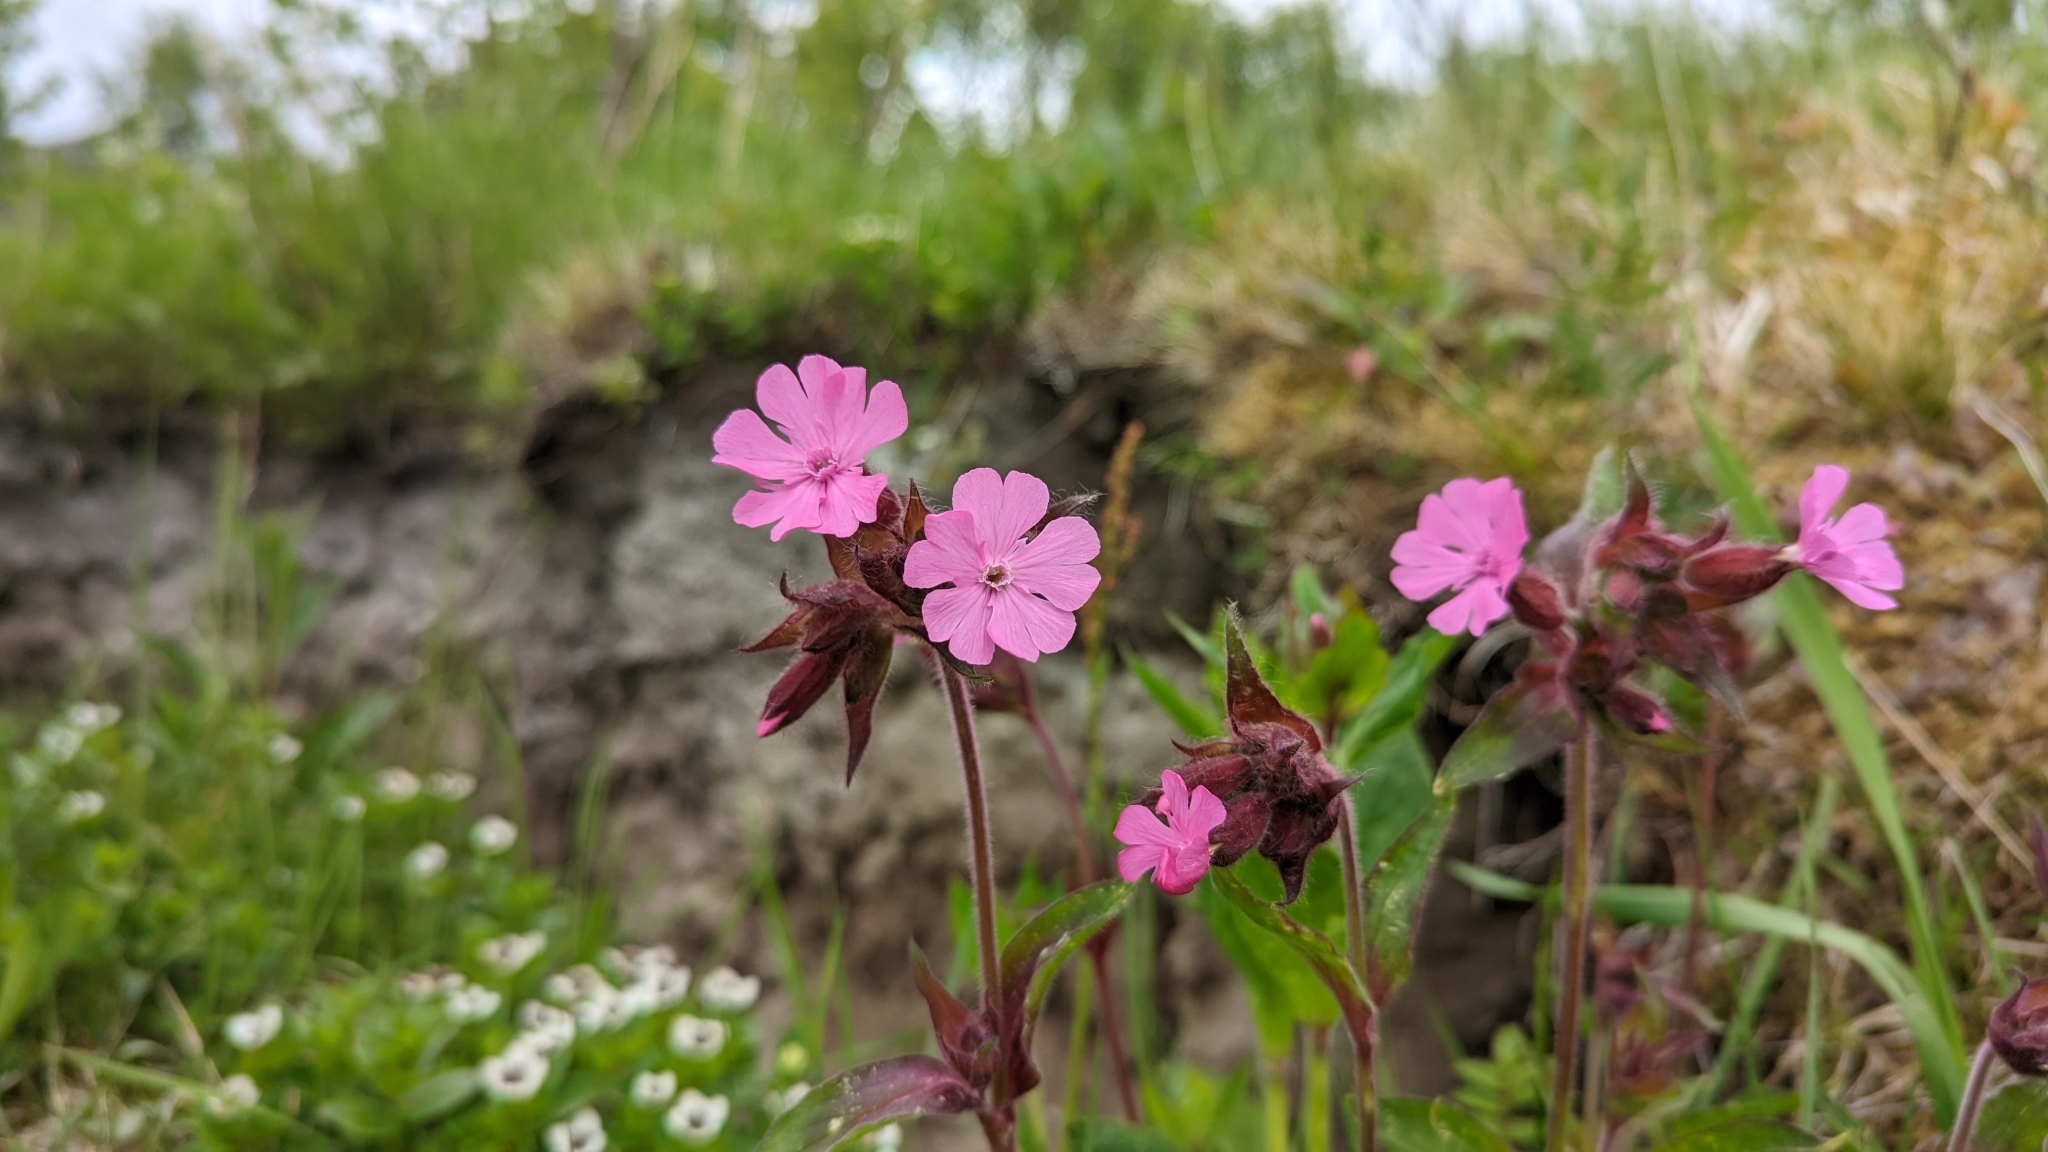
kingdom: Plantae
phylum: Tracheophyta
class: Magnoliopsida
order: Caryophyllales
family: Caryophyllaceae
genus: Silene
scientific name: Silene dioica
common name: Red campion
